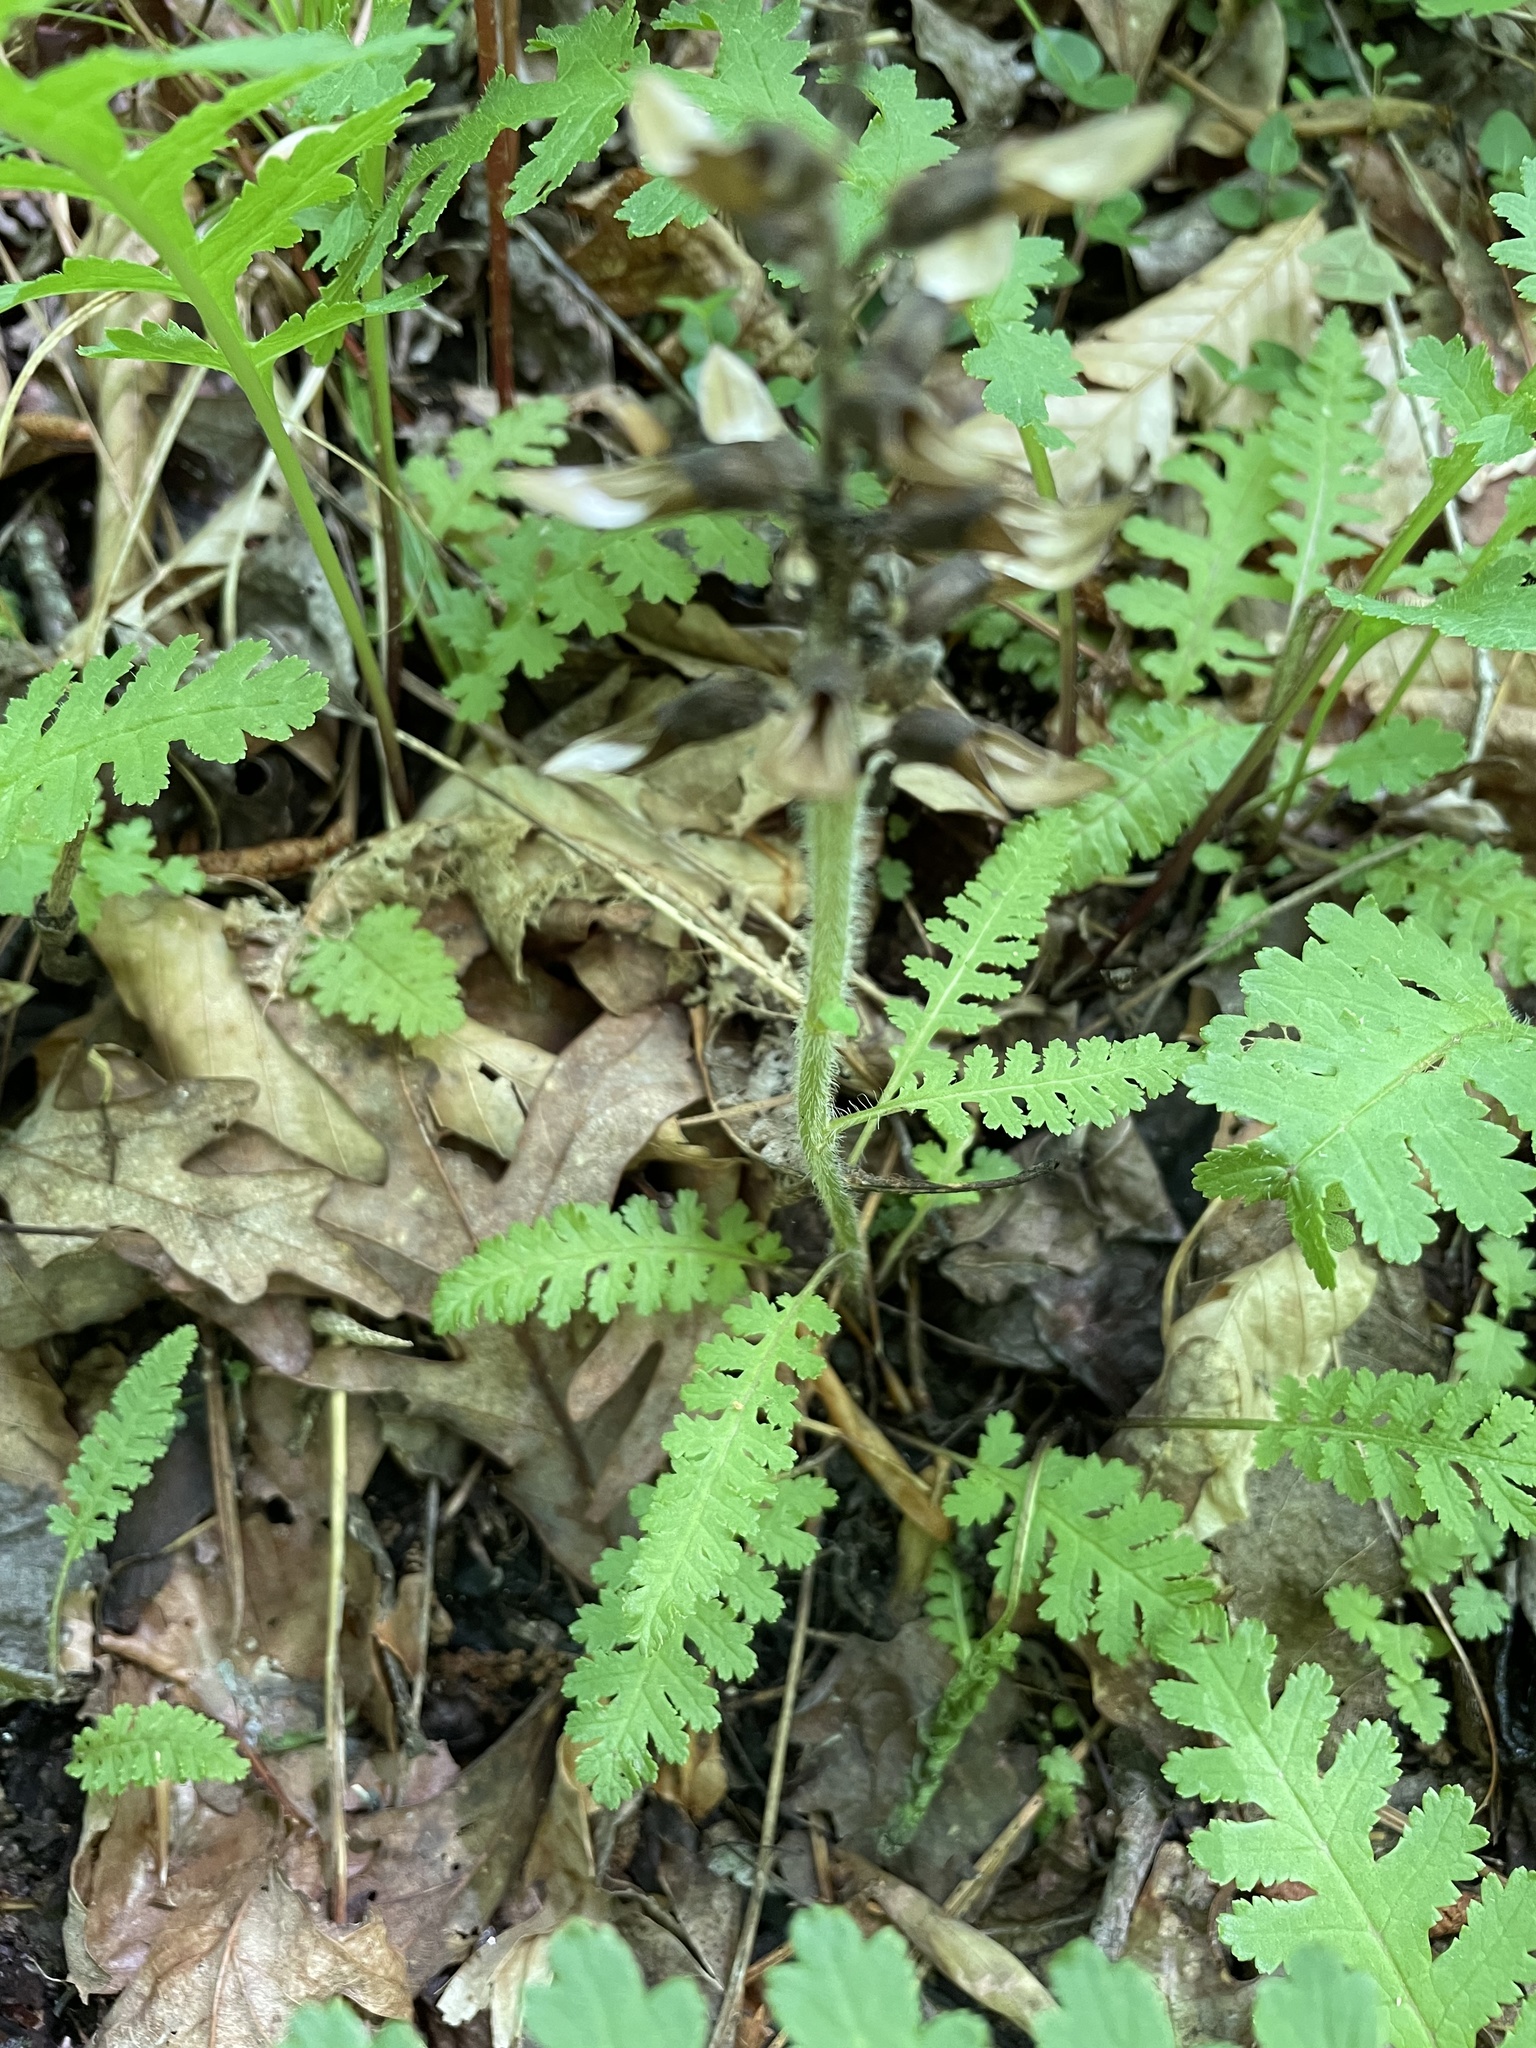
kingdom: Plantae
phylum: Tracheophyta
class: Magnoliopsida
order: Lamiales
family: Orobanchaceae
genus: Pedicularis
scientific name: Pedicularis canadensis
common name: Early lousewort
